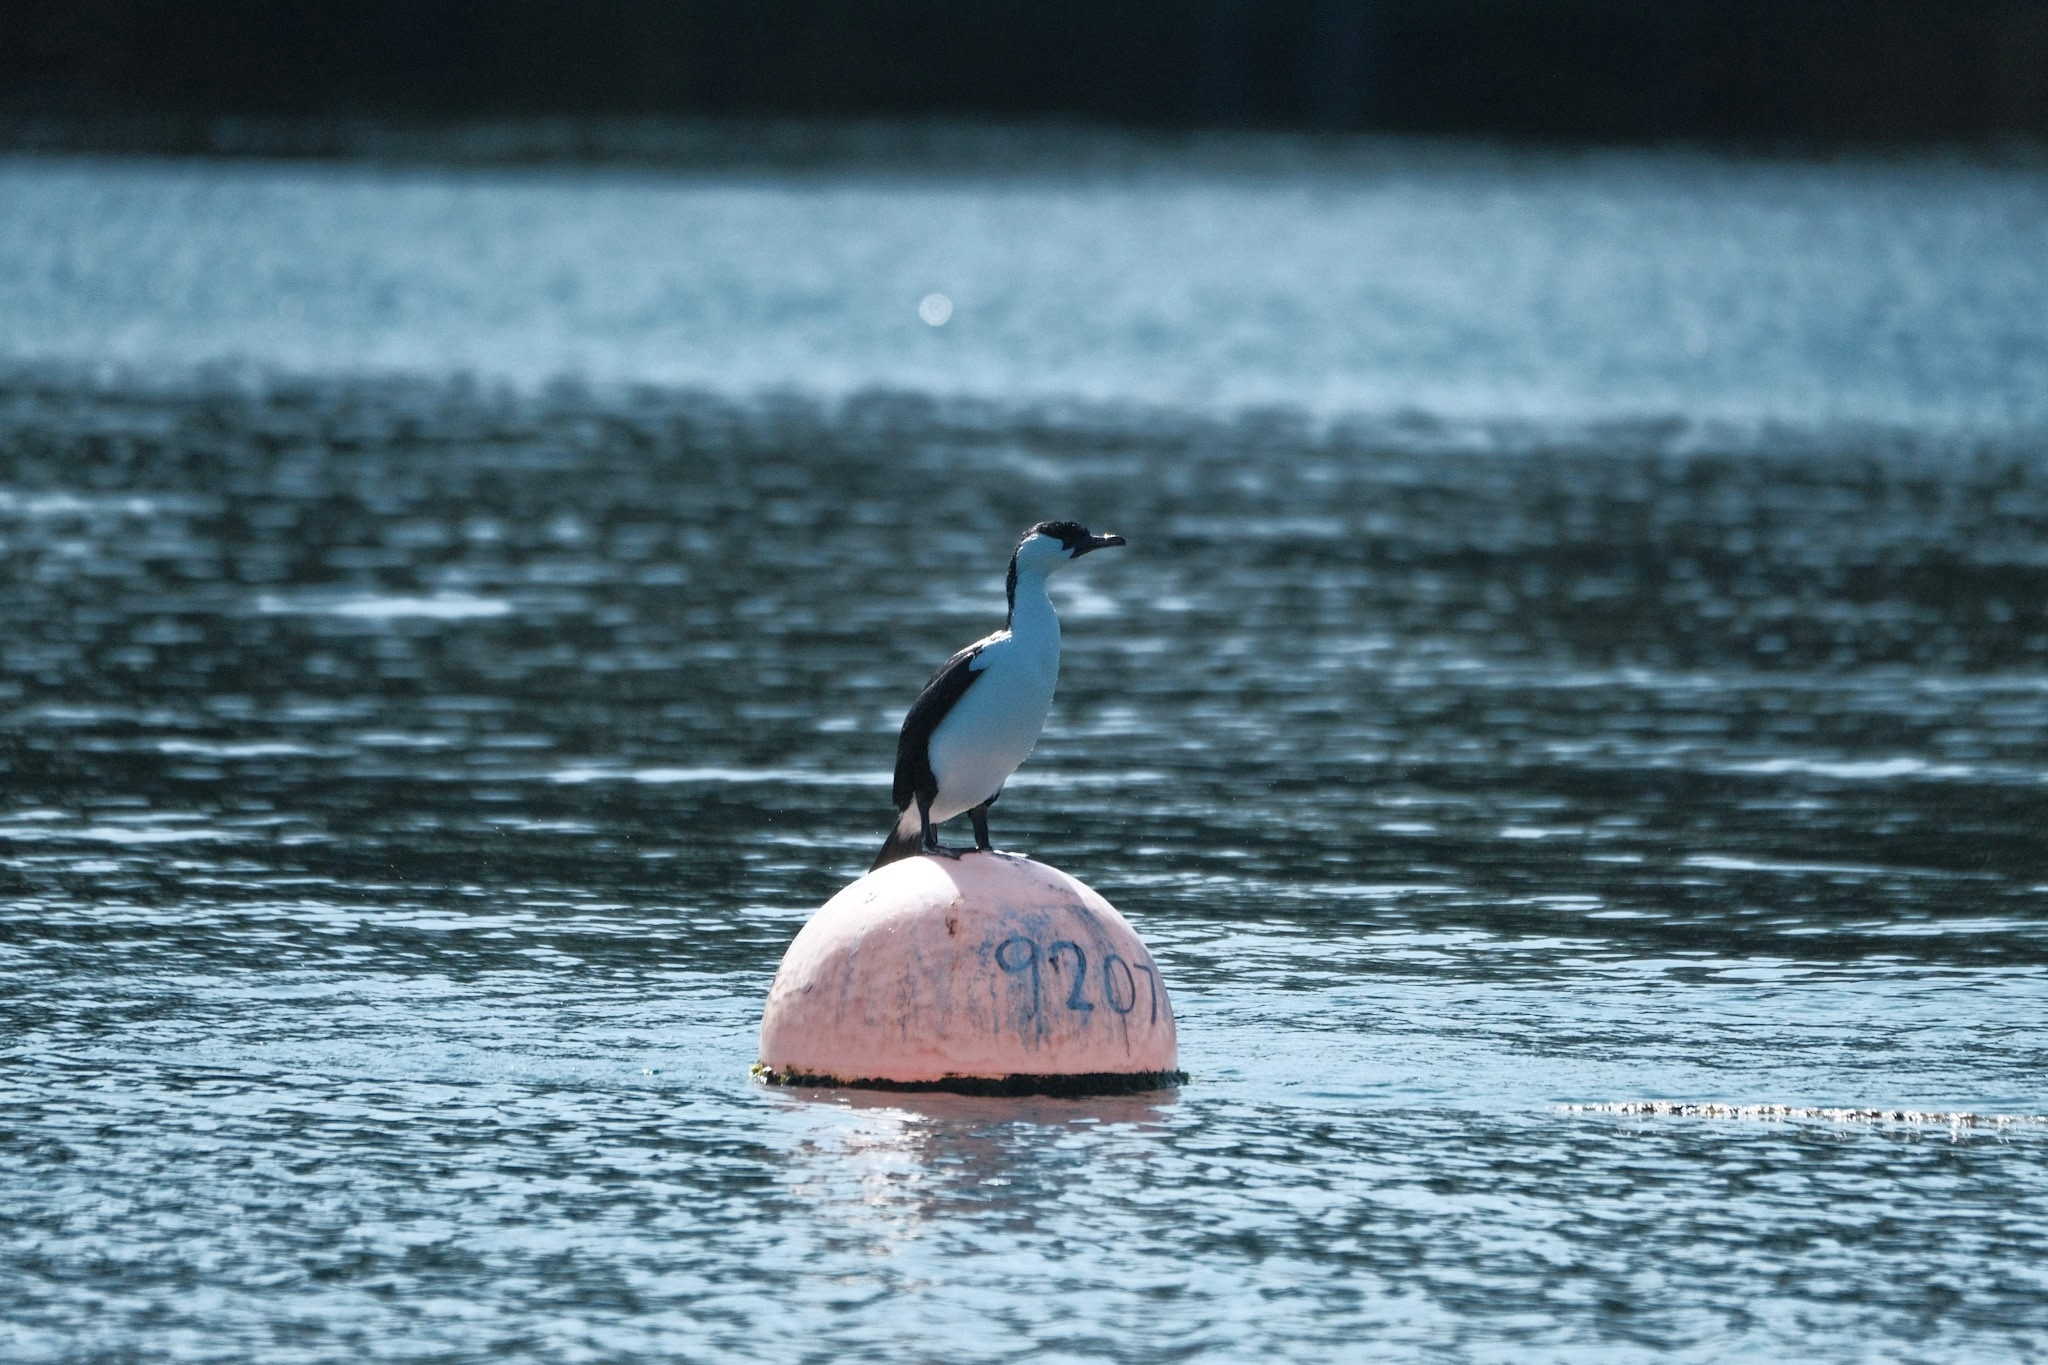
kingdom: Animalia
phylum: Chordata
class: Aves
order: Suliformes
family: Phalacrocoracidae
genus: Phalacrocorax
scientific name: Phalacrocorax fuscescens
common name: Black-faced cormorant
